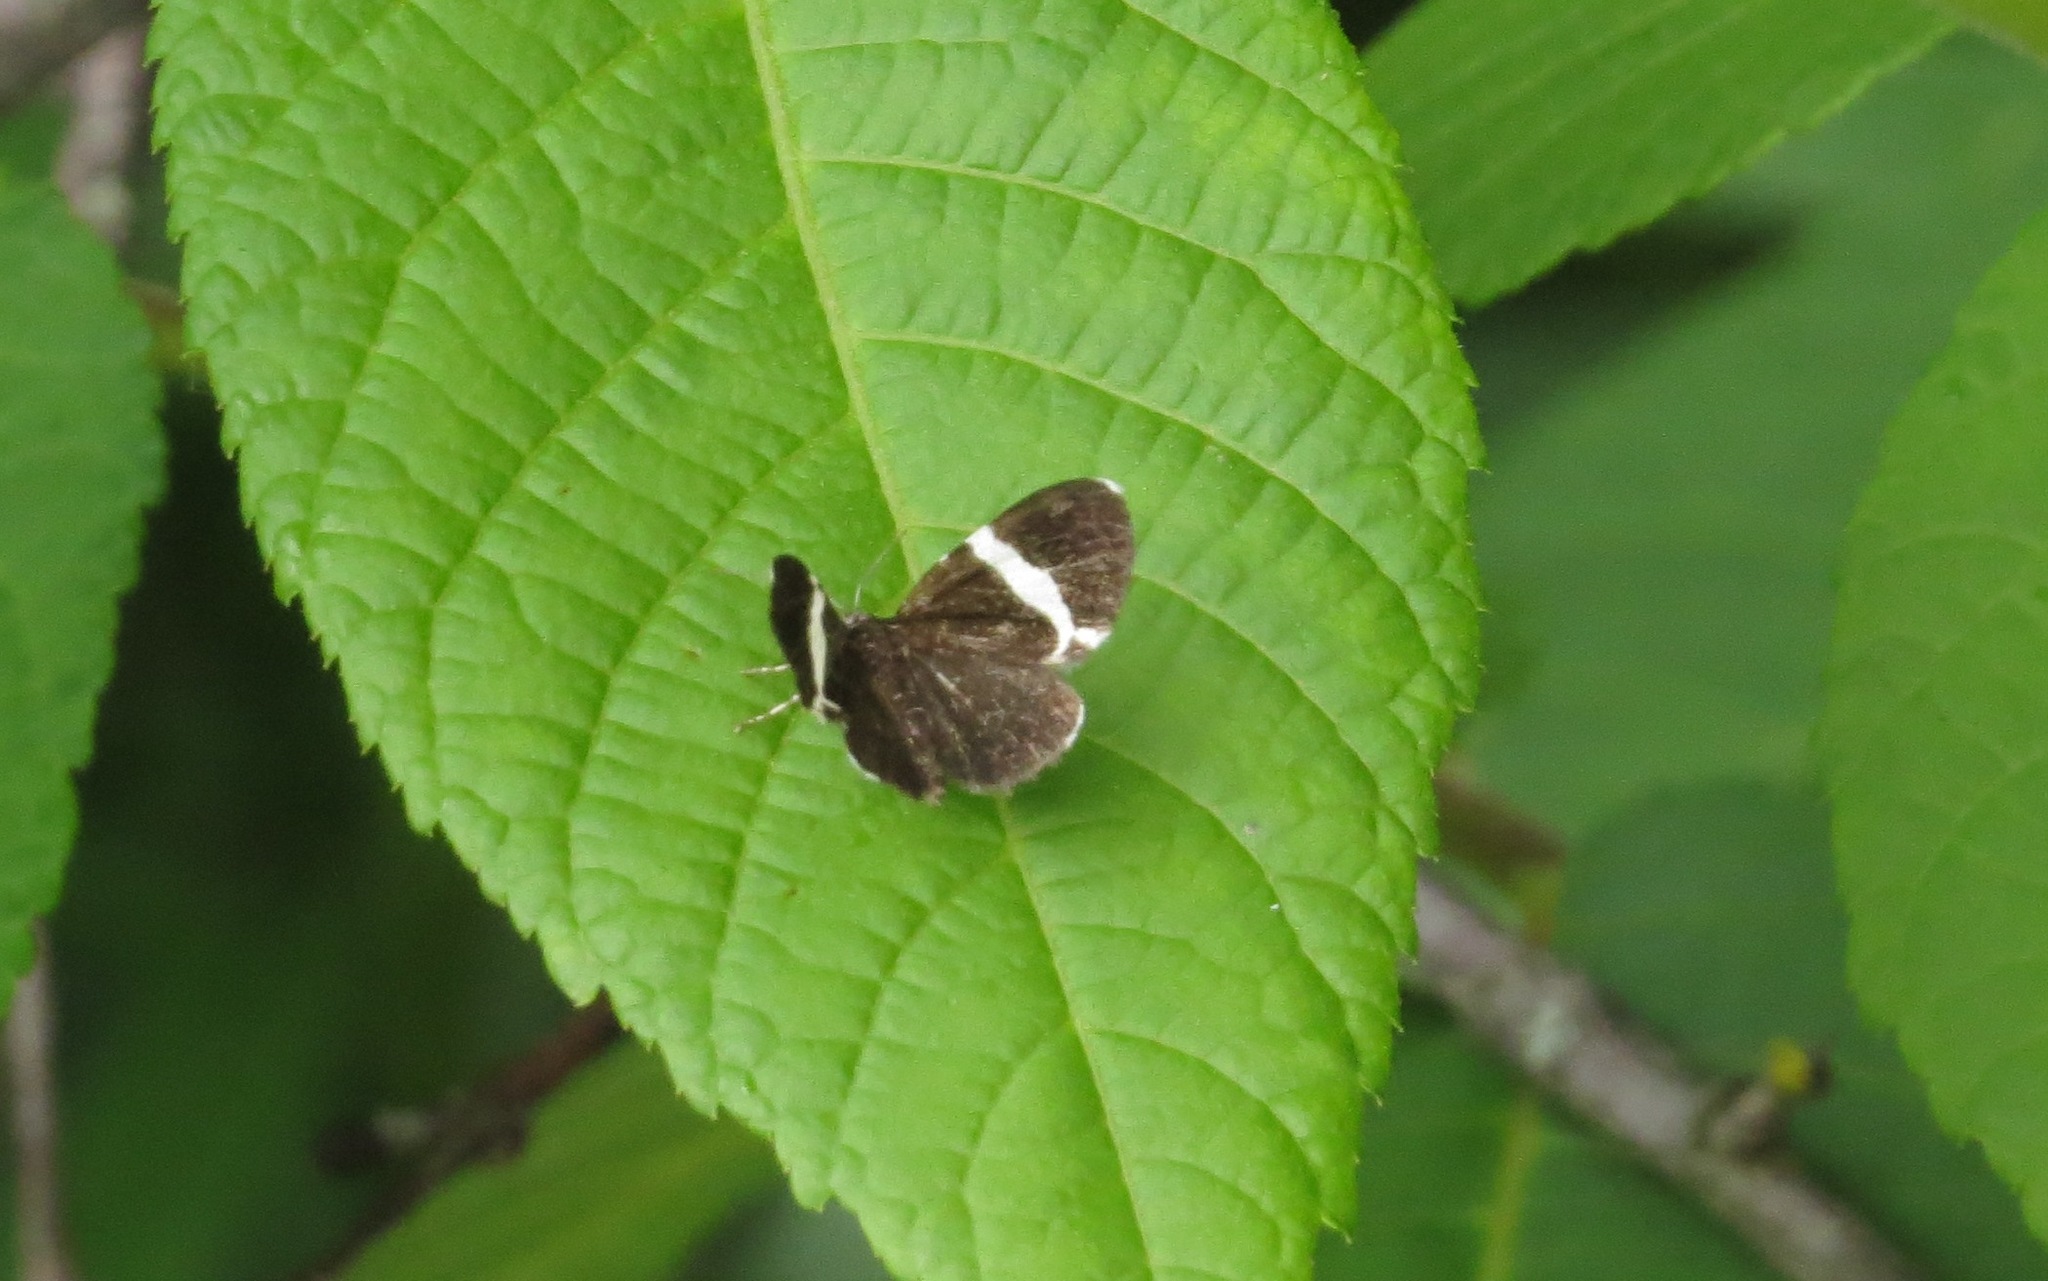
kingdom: Animalia
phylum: Arthropoda
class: Insecta
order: Lepidoptera
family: Geometridae
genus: Trichodezia
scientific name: Trichodezia albovittata
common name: White striped black
